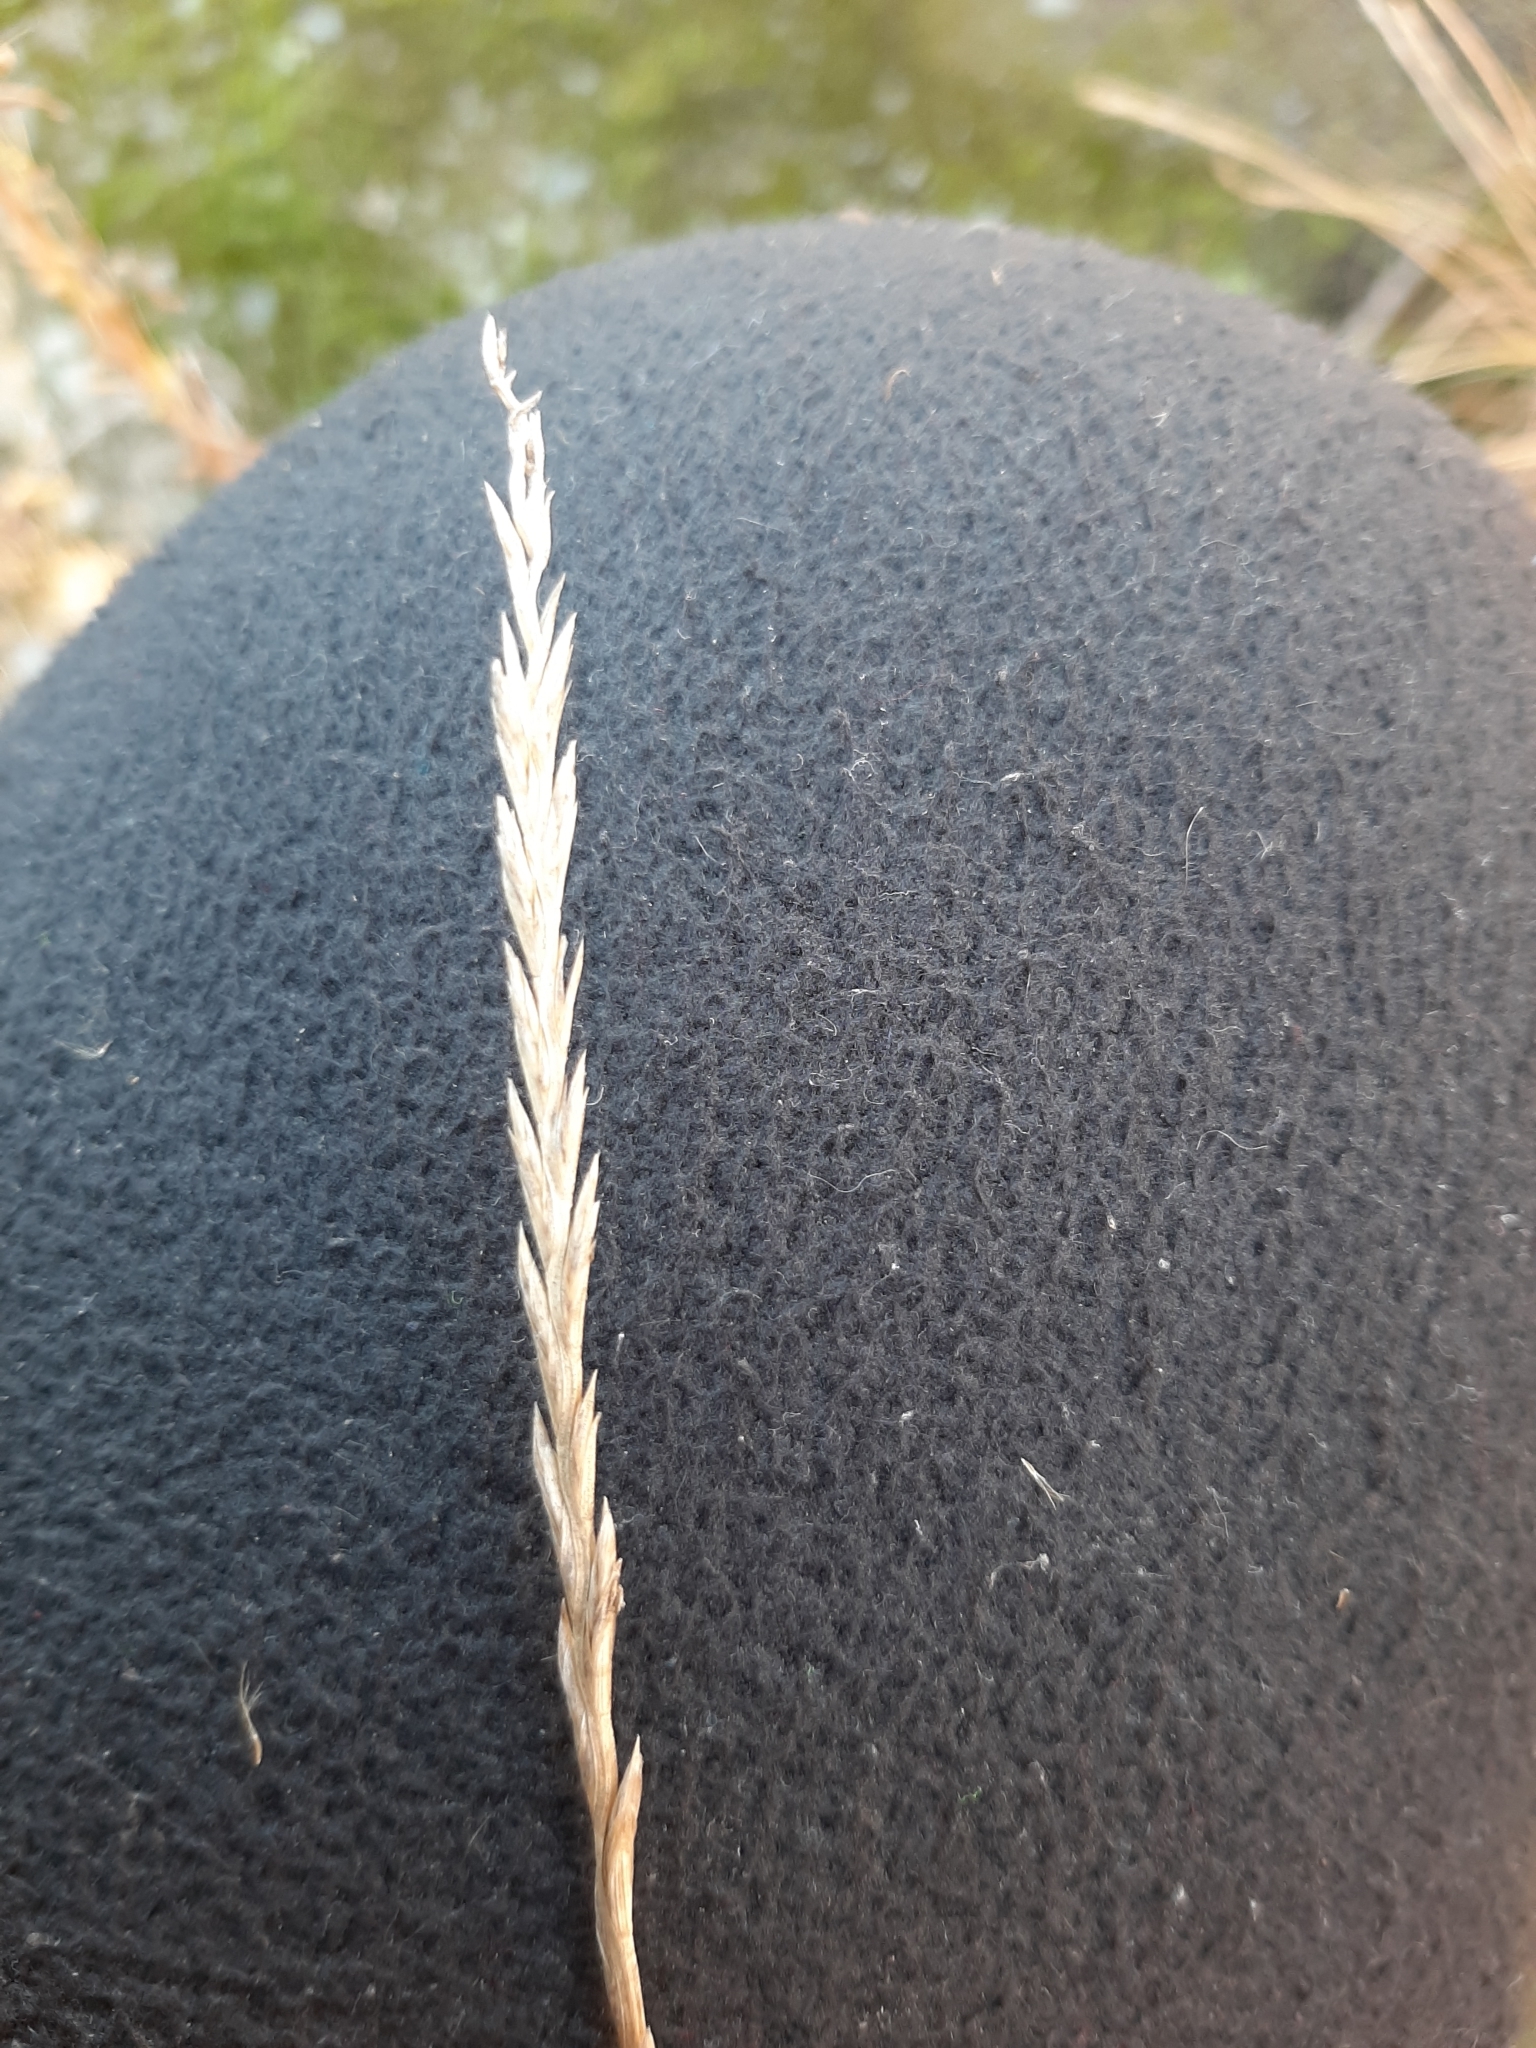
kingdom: Plantae
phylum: Tracheophyta
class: Liliopsida
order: Poales
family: Poaceae
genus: Lolium
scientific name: Lolium perenne
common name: Perennial ryegrass
